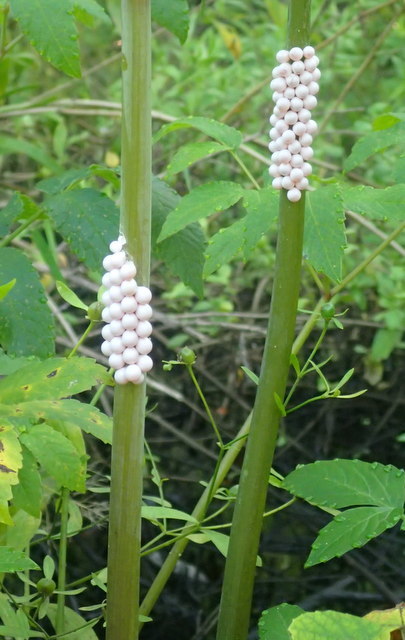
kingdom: Animalia
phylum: Mollusca
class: Gastropoda
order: Architaenioglossa
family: Ampullariidae
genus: Pomacea
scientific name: Pomacea paludosa
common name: Florida applesnail
